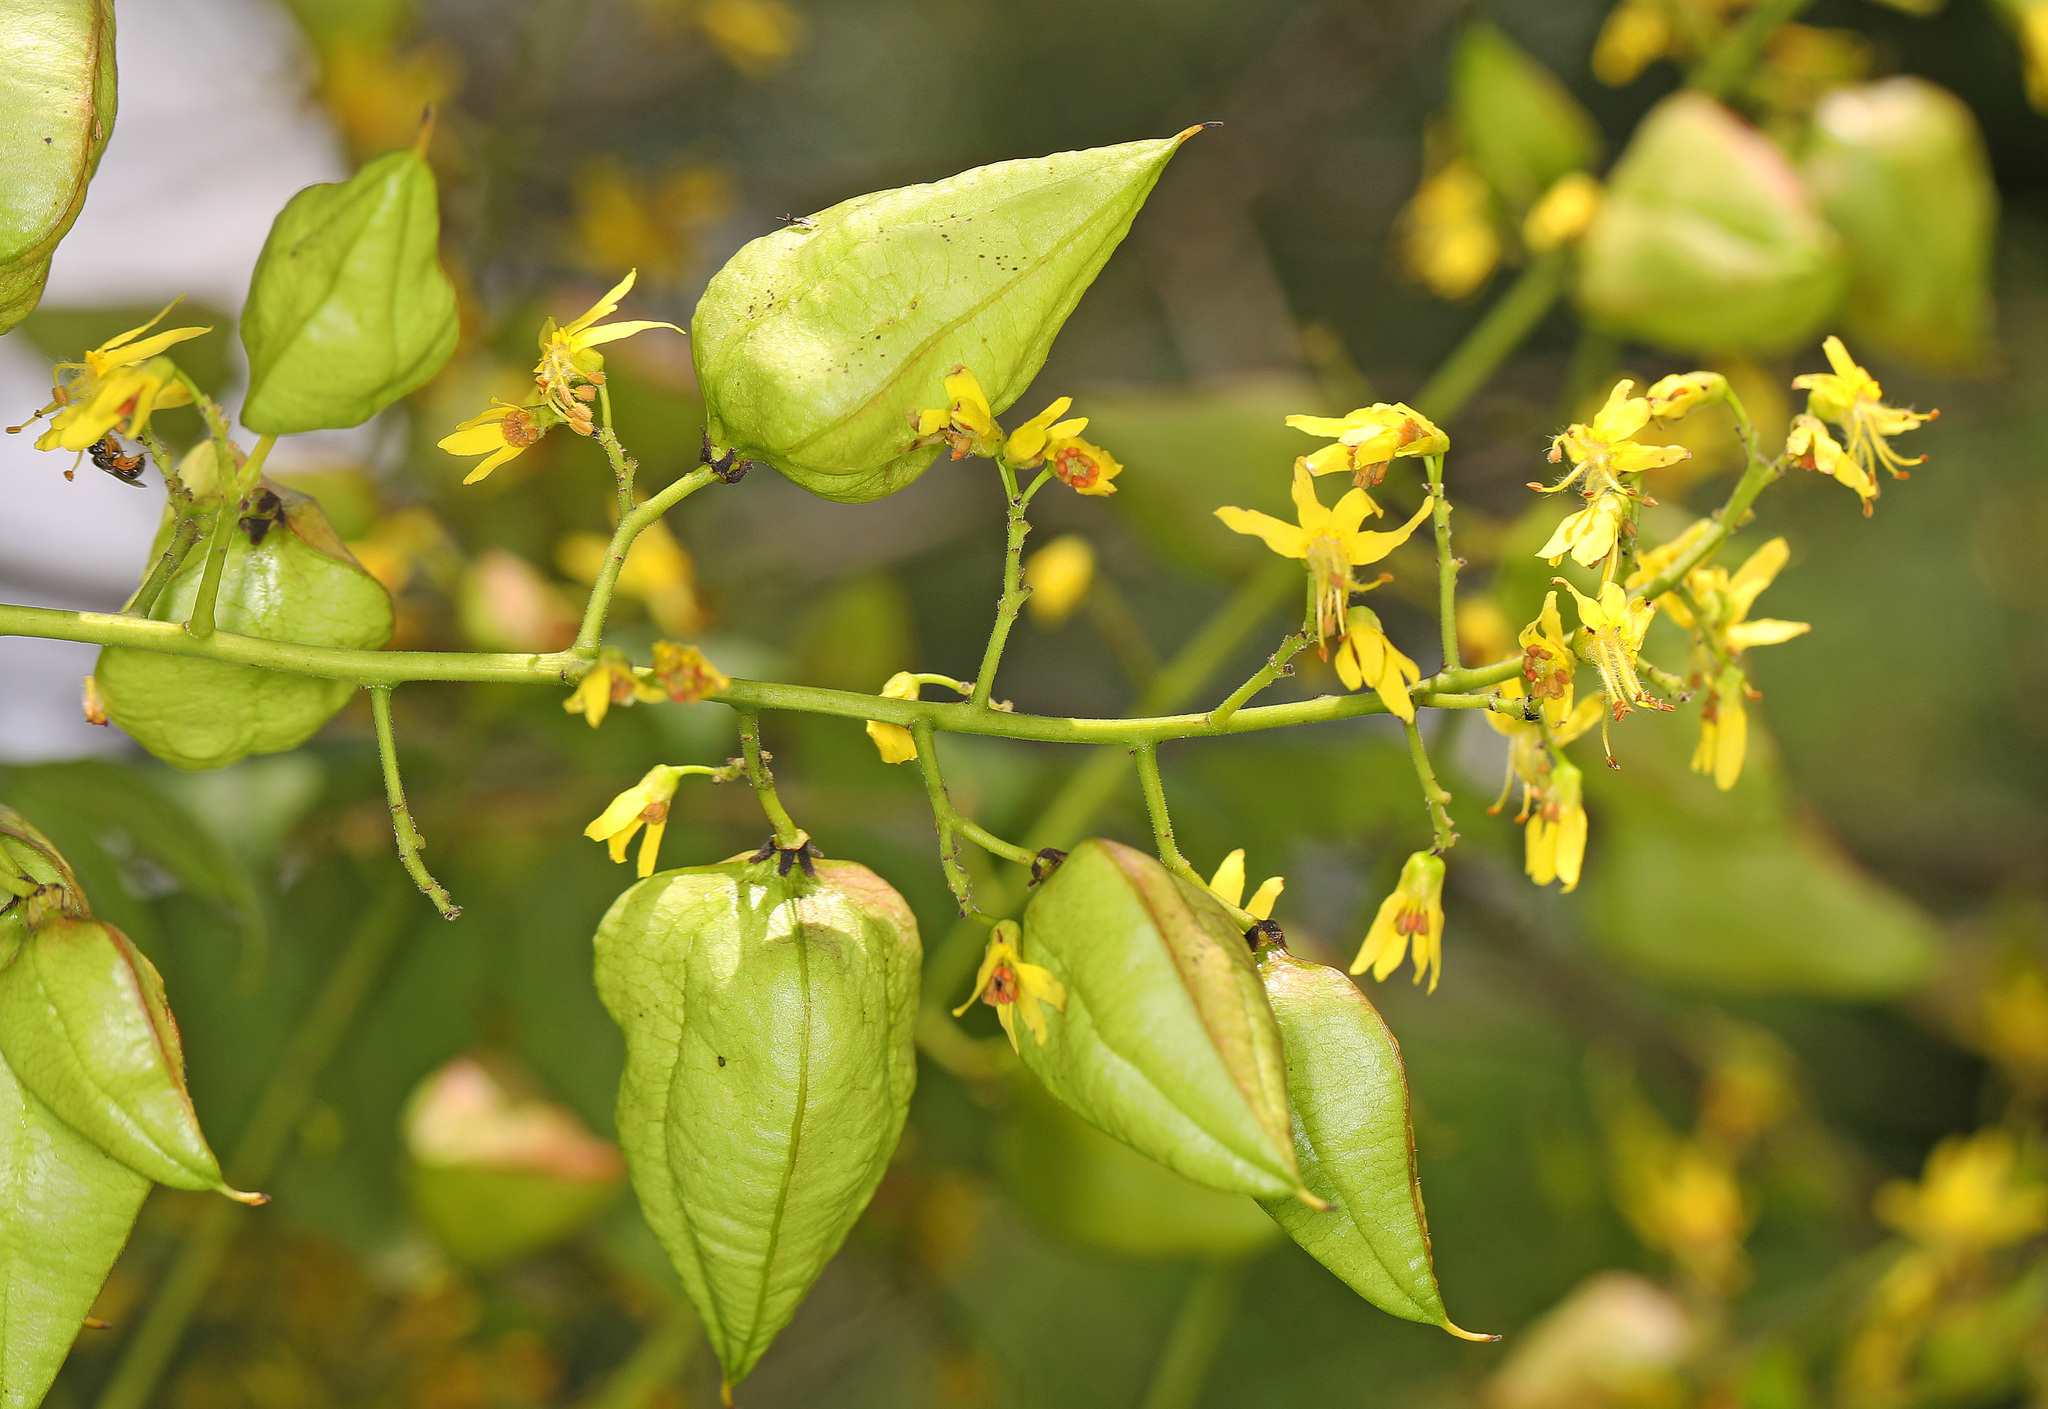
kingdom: Plantae
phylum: Tracheophyta
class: Magnoliopsida
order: Sapindales
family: Sapindaceae
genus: Koelreuteria
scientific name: Koelreuteria paniculata
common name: Pride-of-india
